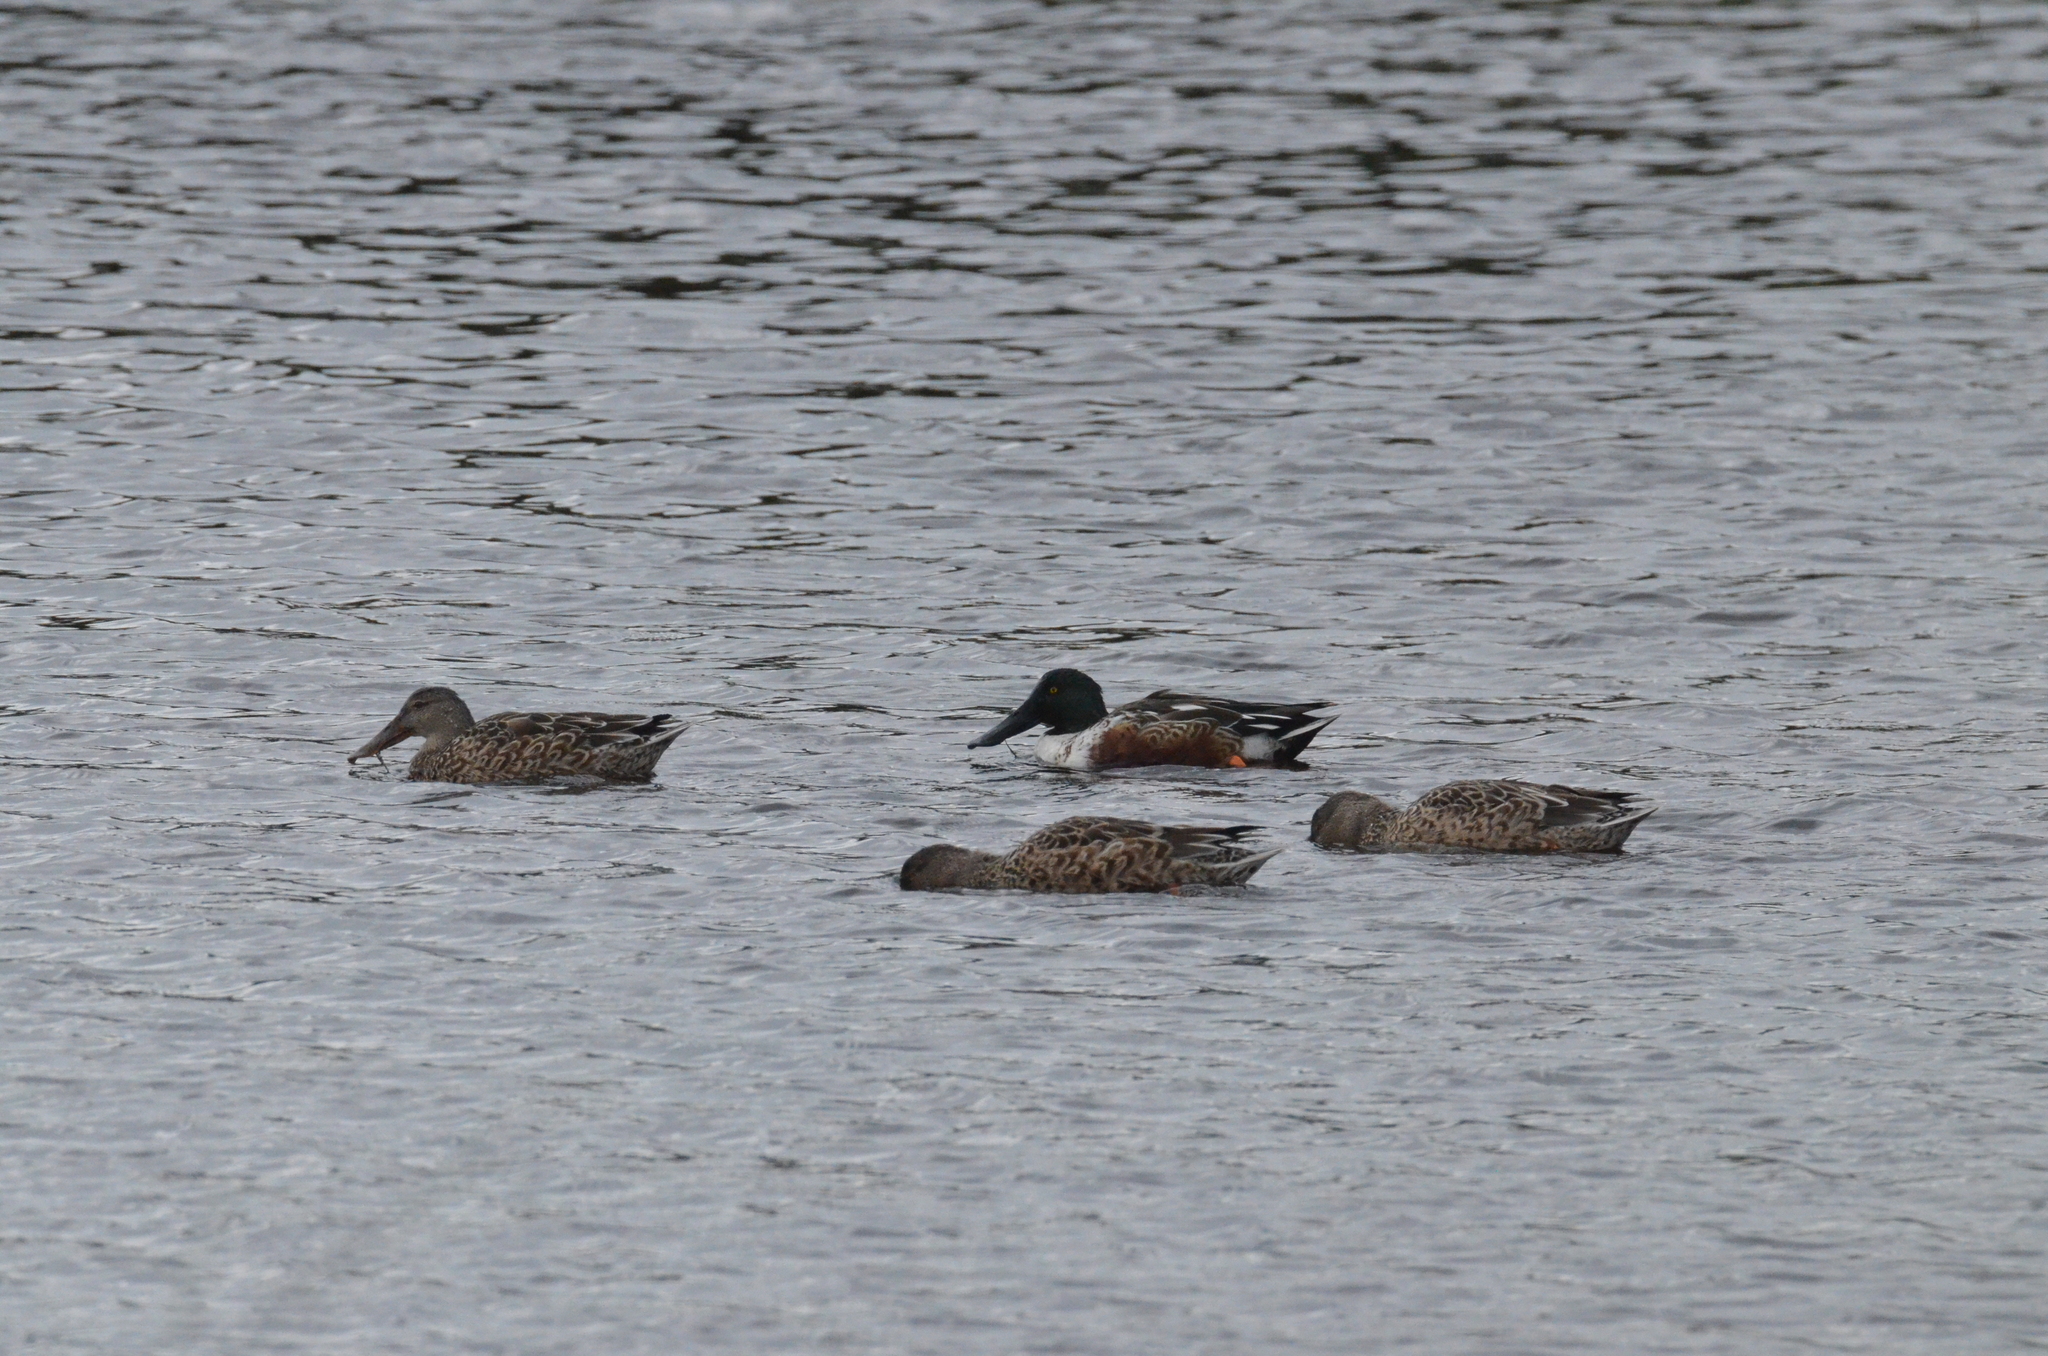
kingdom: Animalia
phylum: Chordata
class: Aves
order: Anseriformes
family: Anatidae
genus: Spatula
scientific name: Spatula clypeata
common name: Northern shoveler
